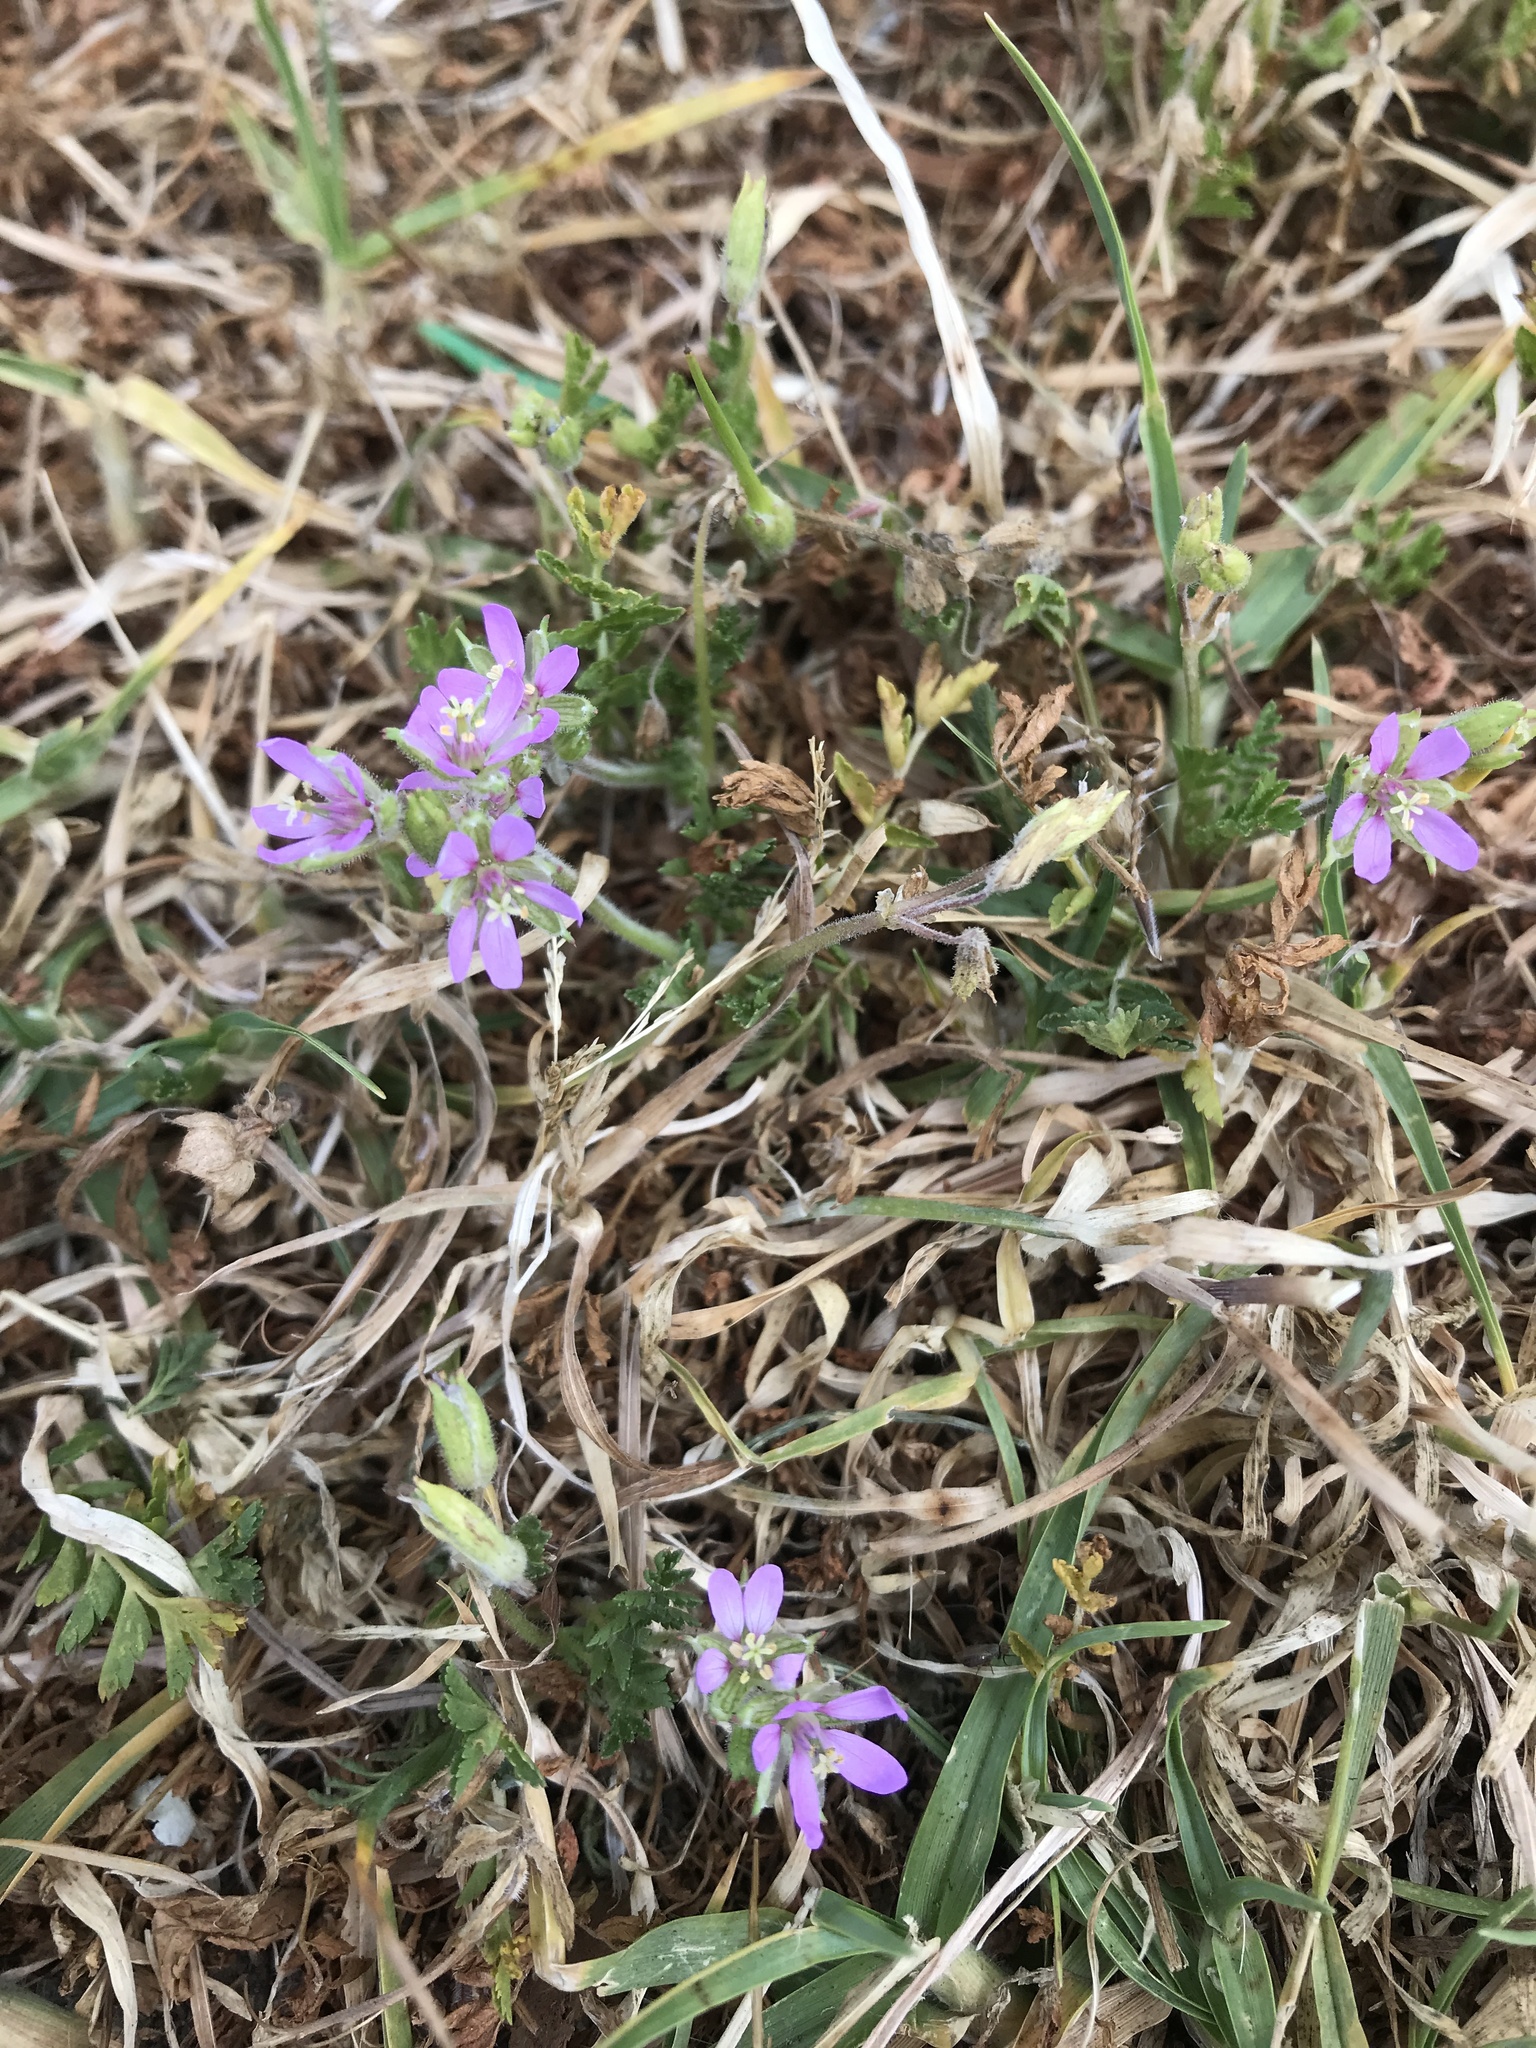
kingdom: Plantae
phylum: Tracheophyta
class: Magnoliopsida
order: Geraniales
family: Geraniaceae
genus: Erodium
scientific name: Erodium moschatum
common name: Musk stork's-bill
